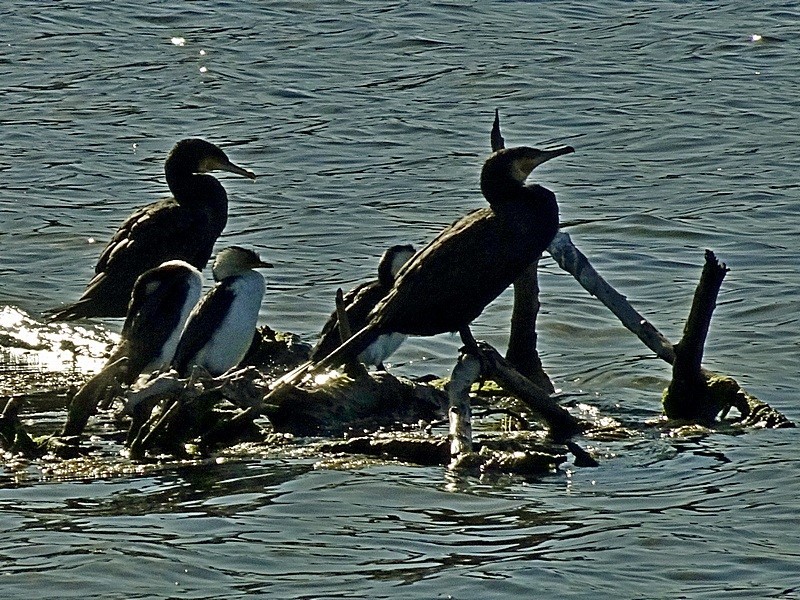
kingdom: Animalia
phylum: Chordata
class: Aves
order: Suliformes
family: Phalacrocoracidae
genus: Phalacrocorax
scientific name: Phalacrocorax carbo
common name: Great cormorant
